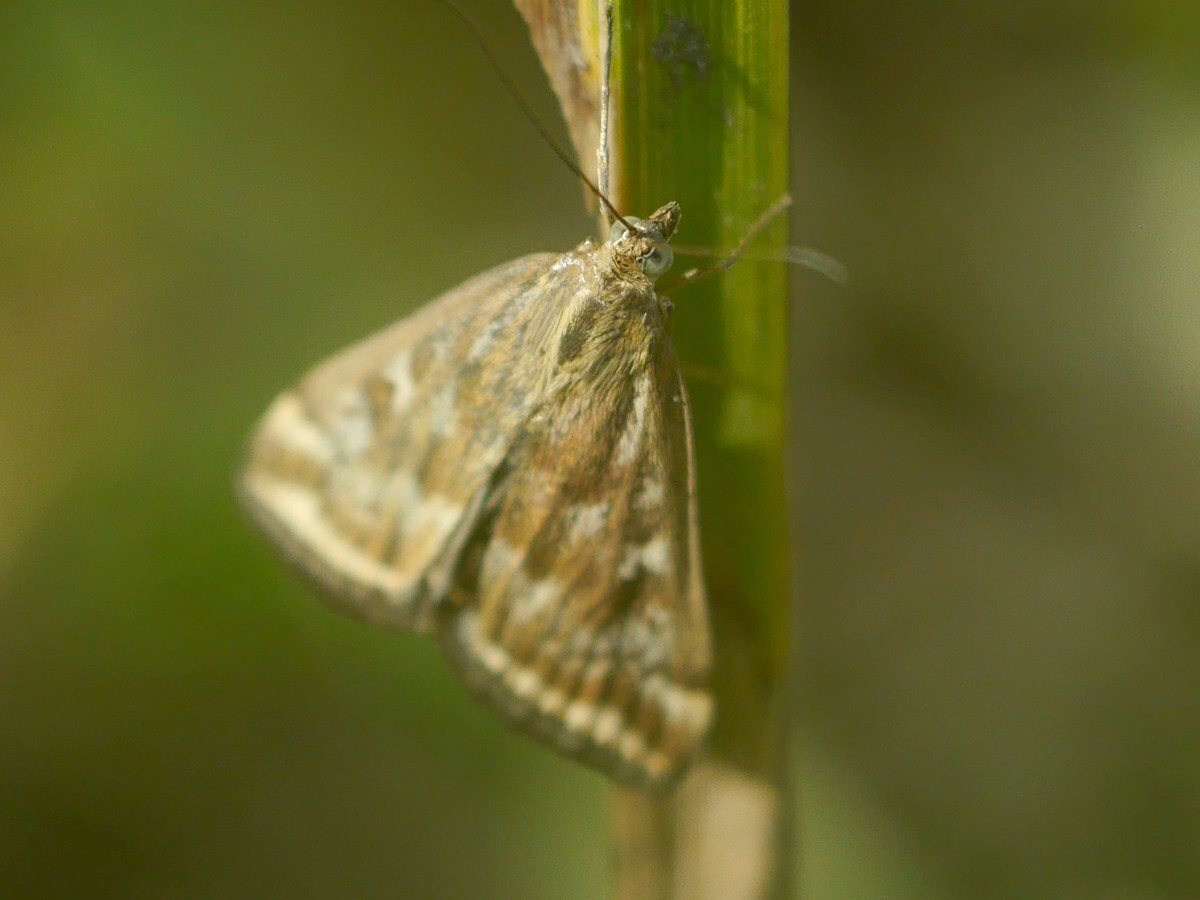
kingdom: Animalia
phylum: Arthropoda
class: Insecta
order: Lepidoptera
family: Crambidae
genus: Loxostege
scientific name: Loxostege sticticalis
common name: Crambid moth
